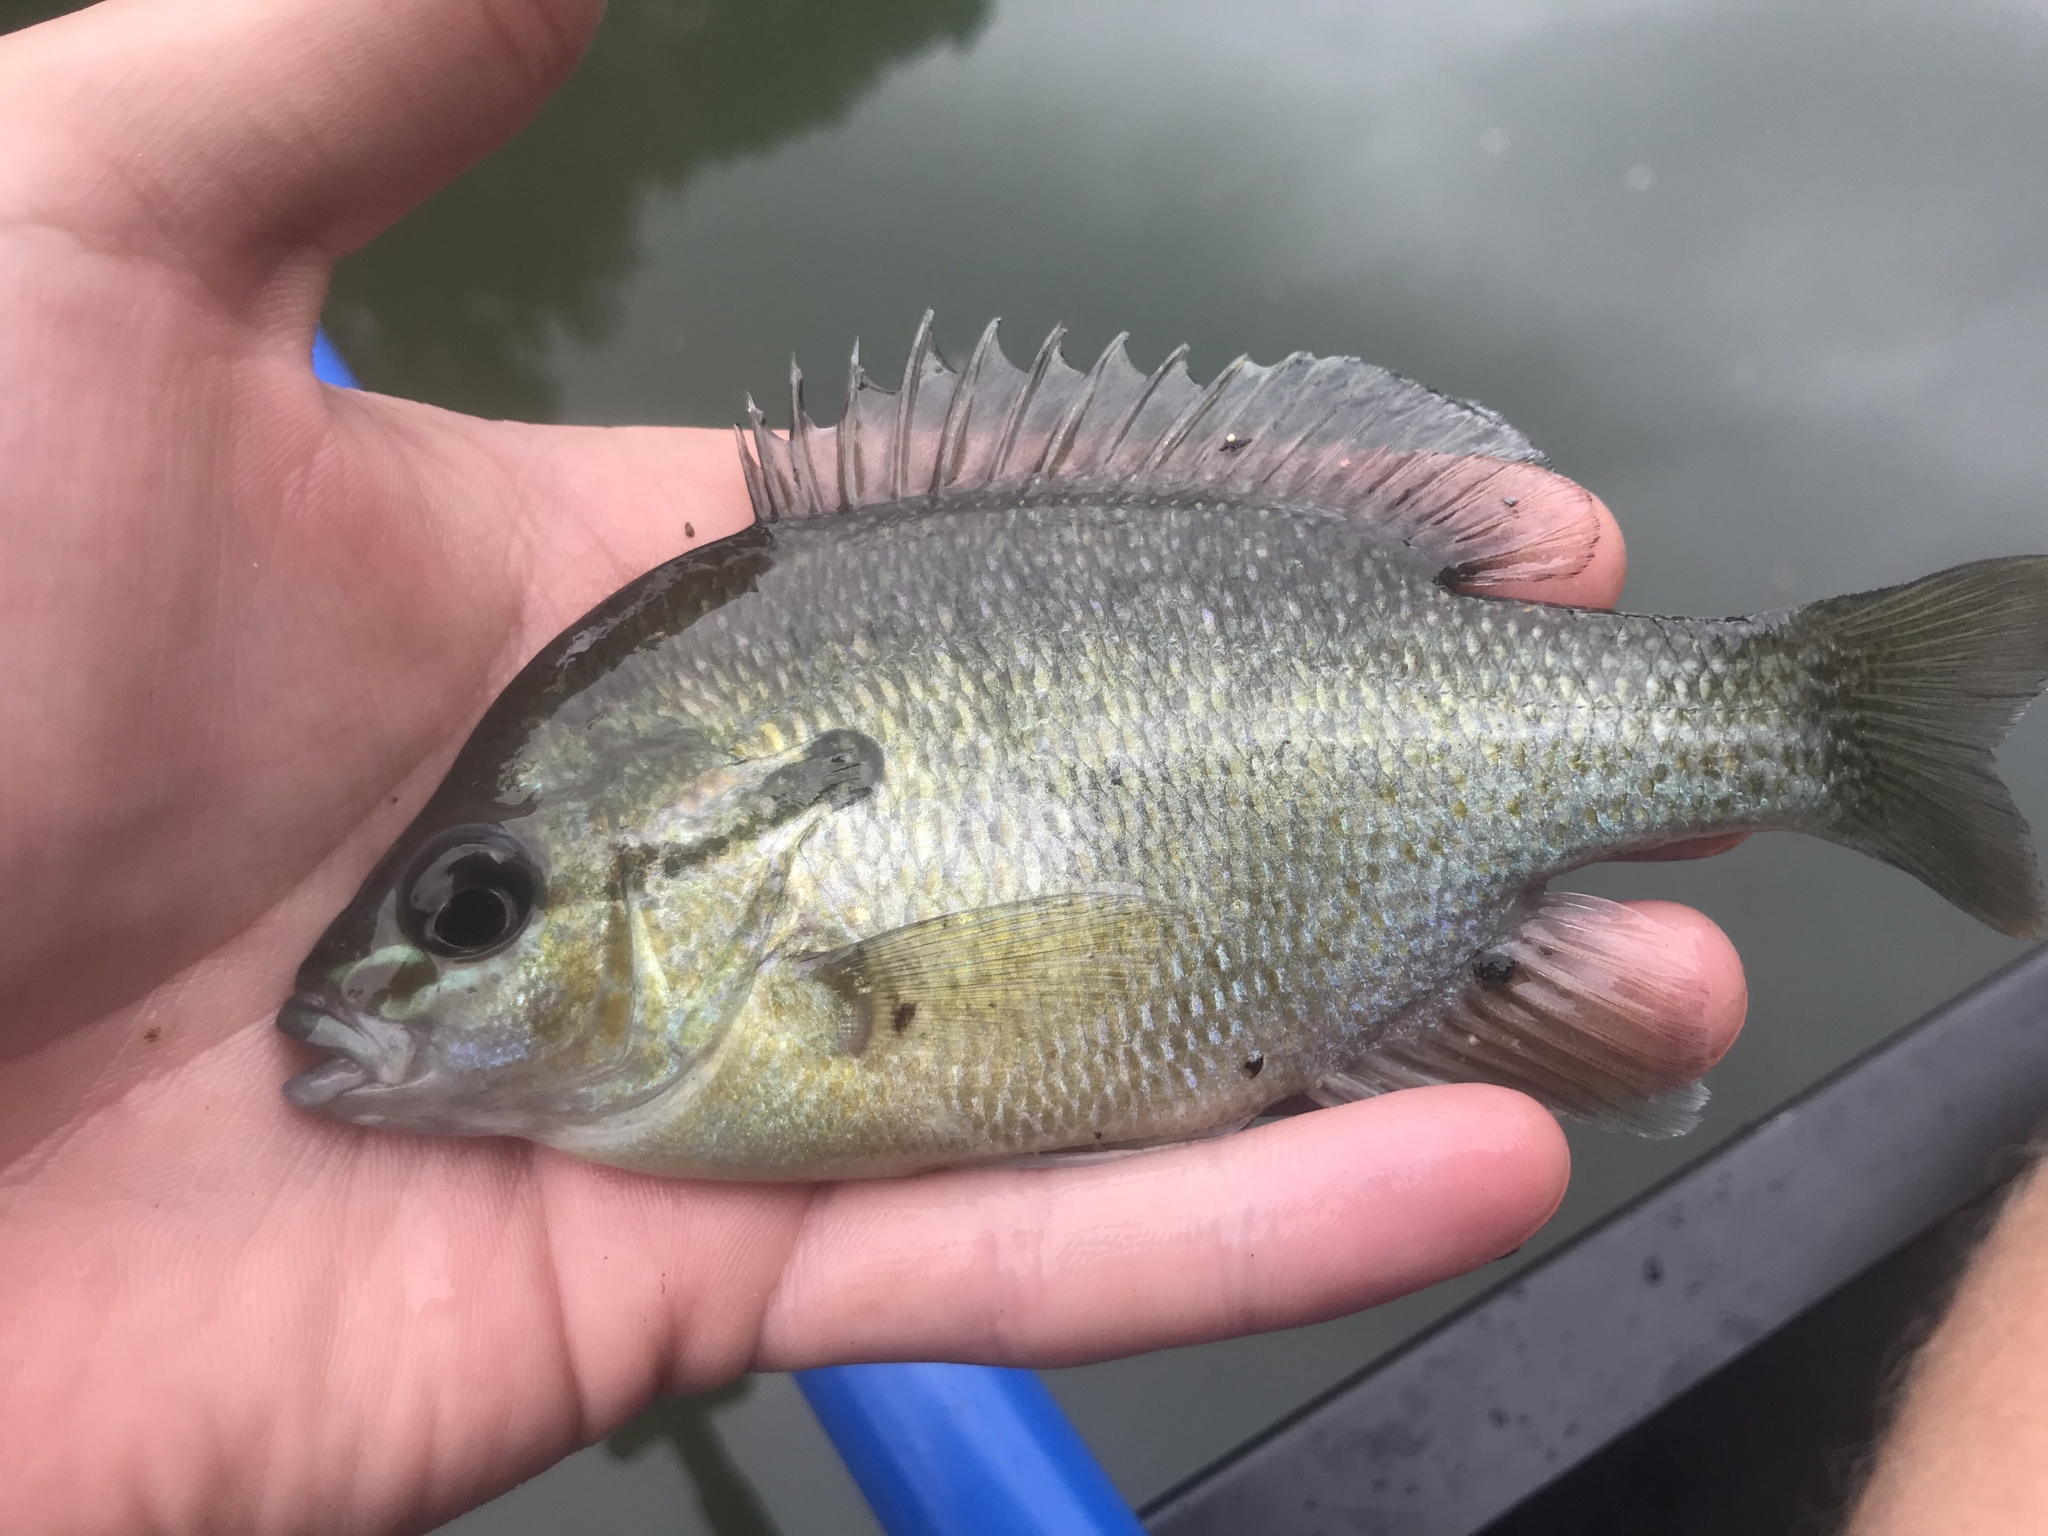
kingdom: Animalia
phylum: Chordata
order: Perciformes
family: Centrarchidae
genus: Lepomis
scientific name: Lepomis auritus
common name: Redbreast sunfish
